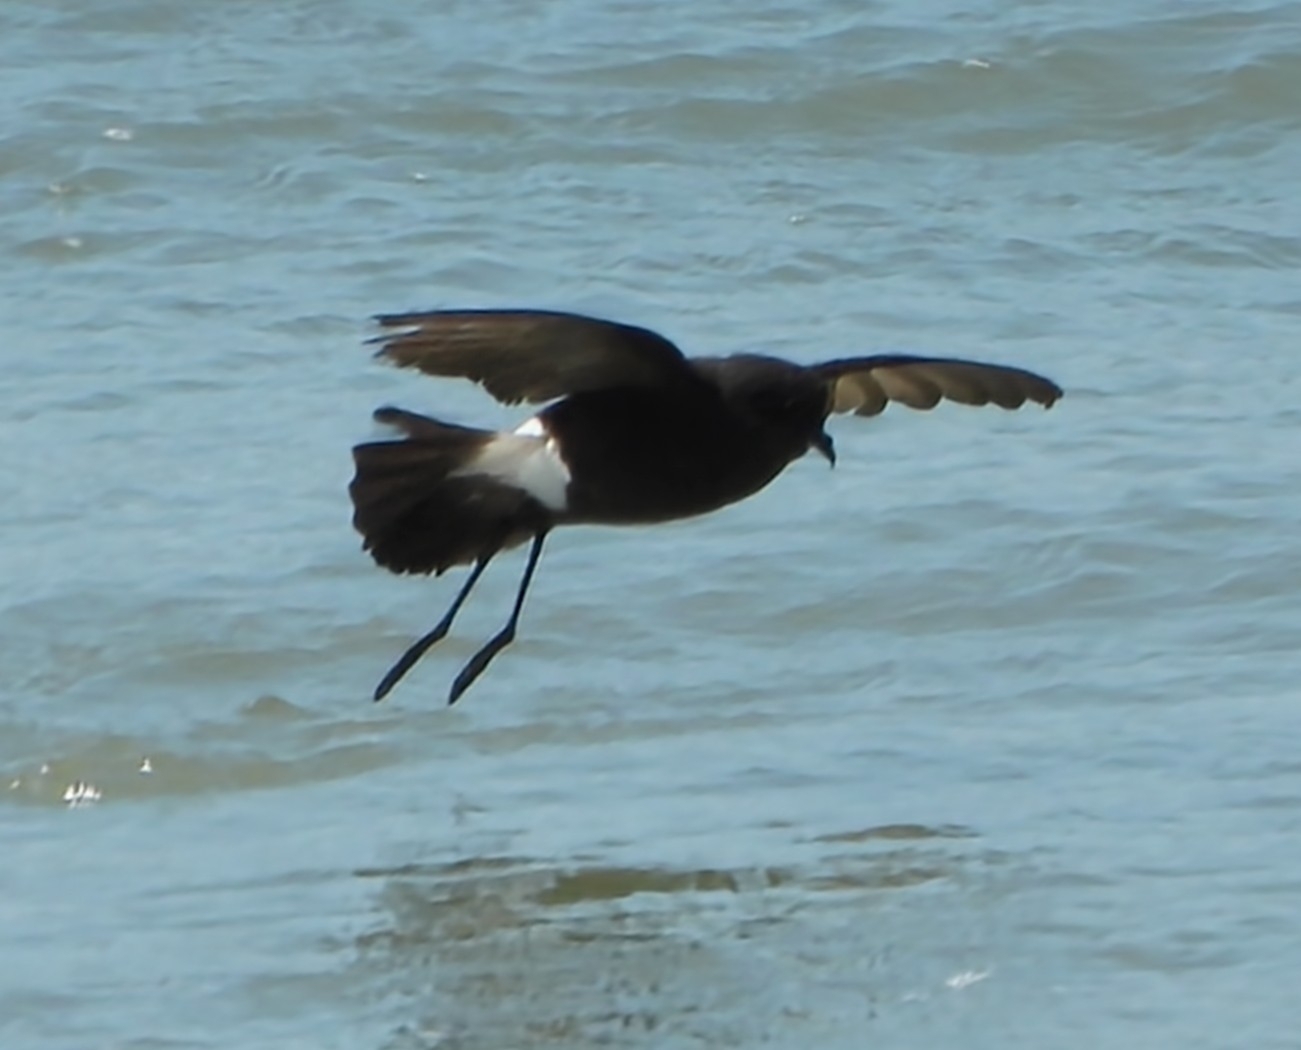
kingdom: Animalia
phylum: Chordata
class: Aves
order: Procellariiformes
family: Hydrobatidae
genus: Oceanites
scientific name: Oceanites oceanicus
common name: Wilson's storm petrel
